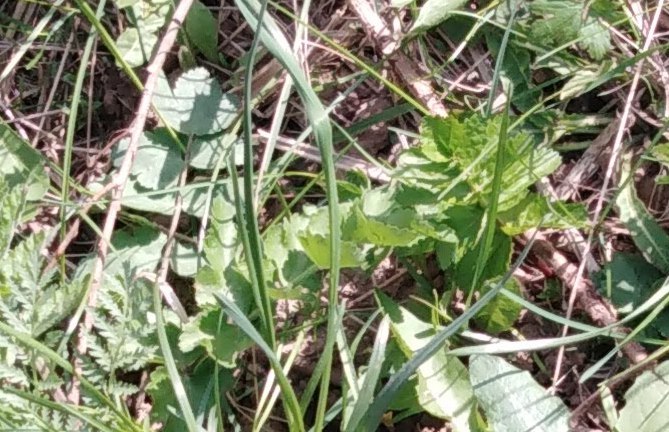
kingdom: Plantae
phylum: Tracheophyta
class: Magnoliopsida
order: Apiales
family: Apiaceae
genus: Pimpinella
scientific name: Pimpinella saxifraga
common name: Burnet-saxifrage
